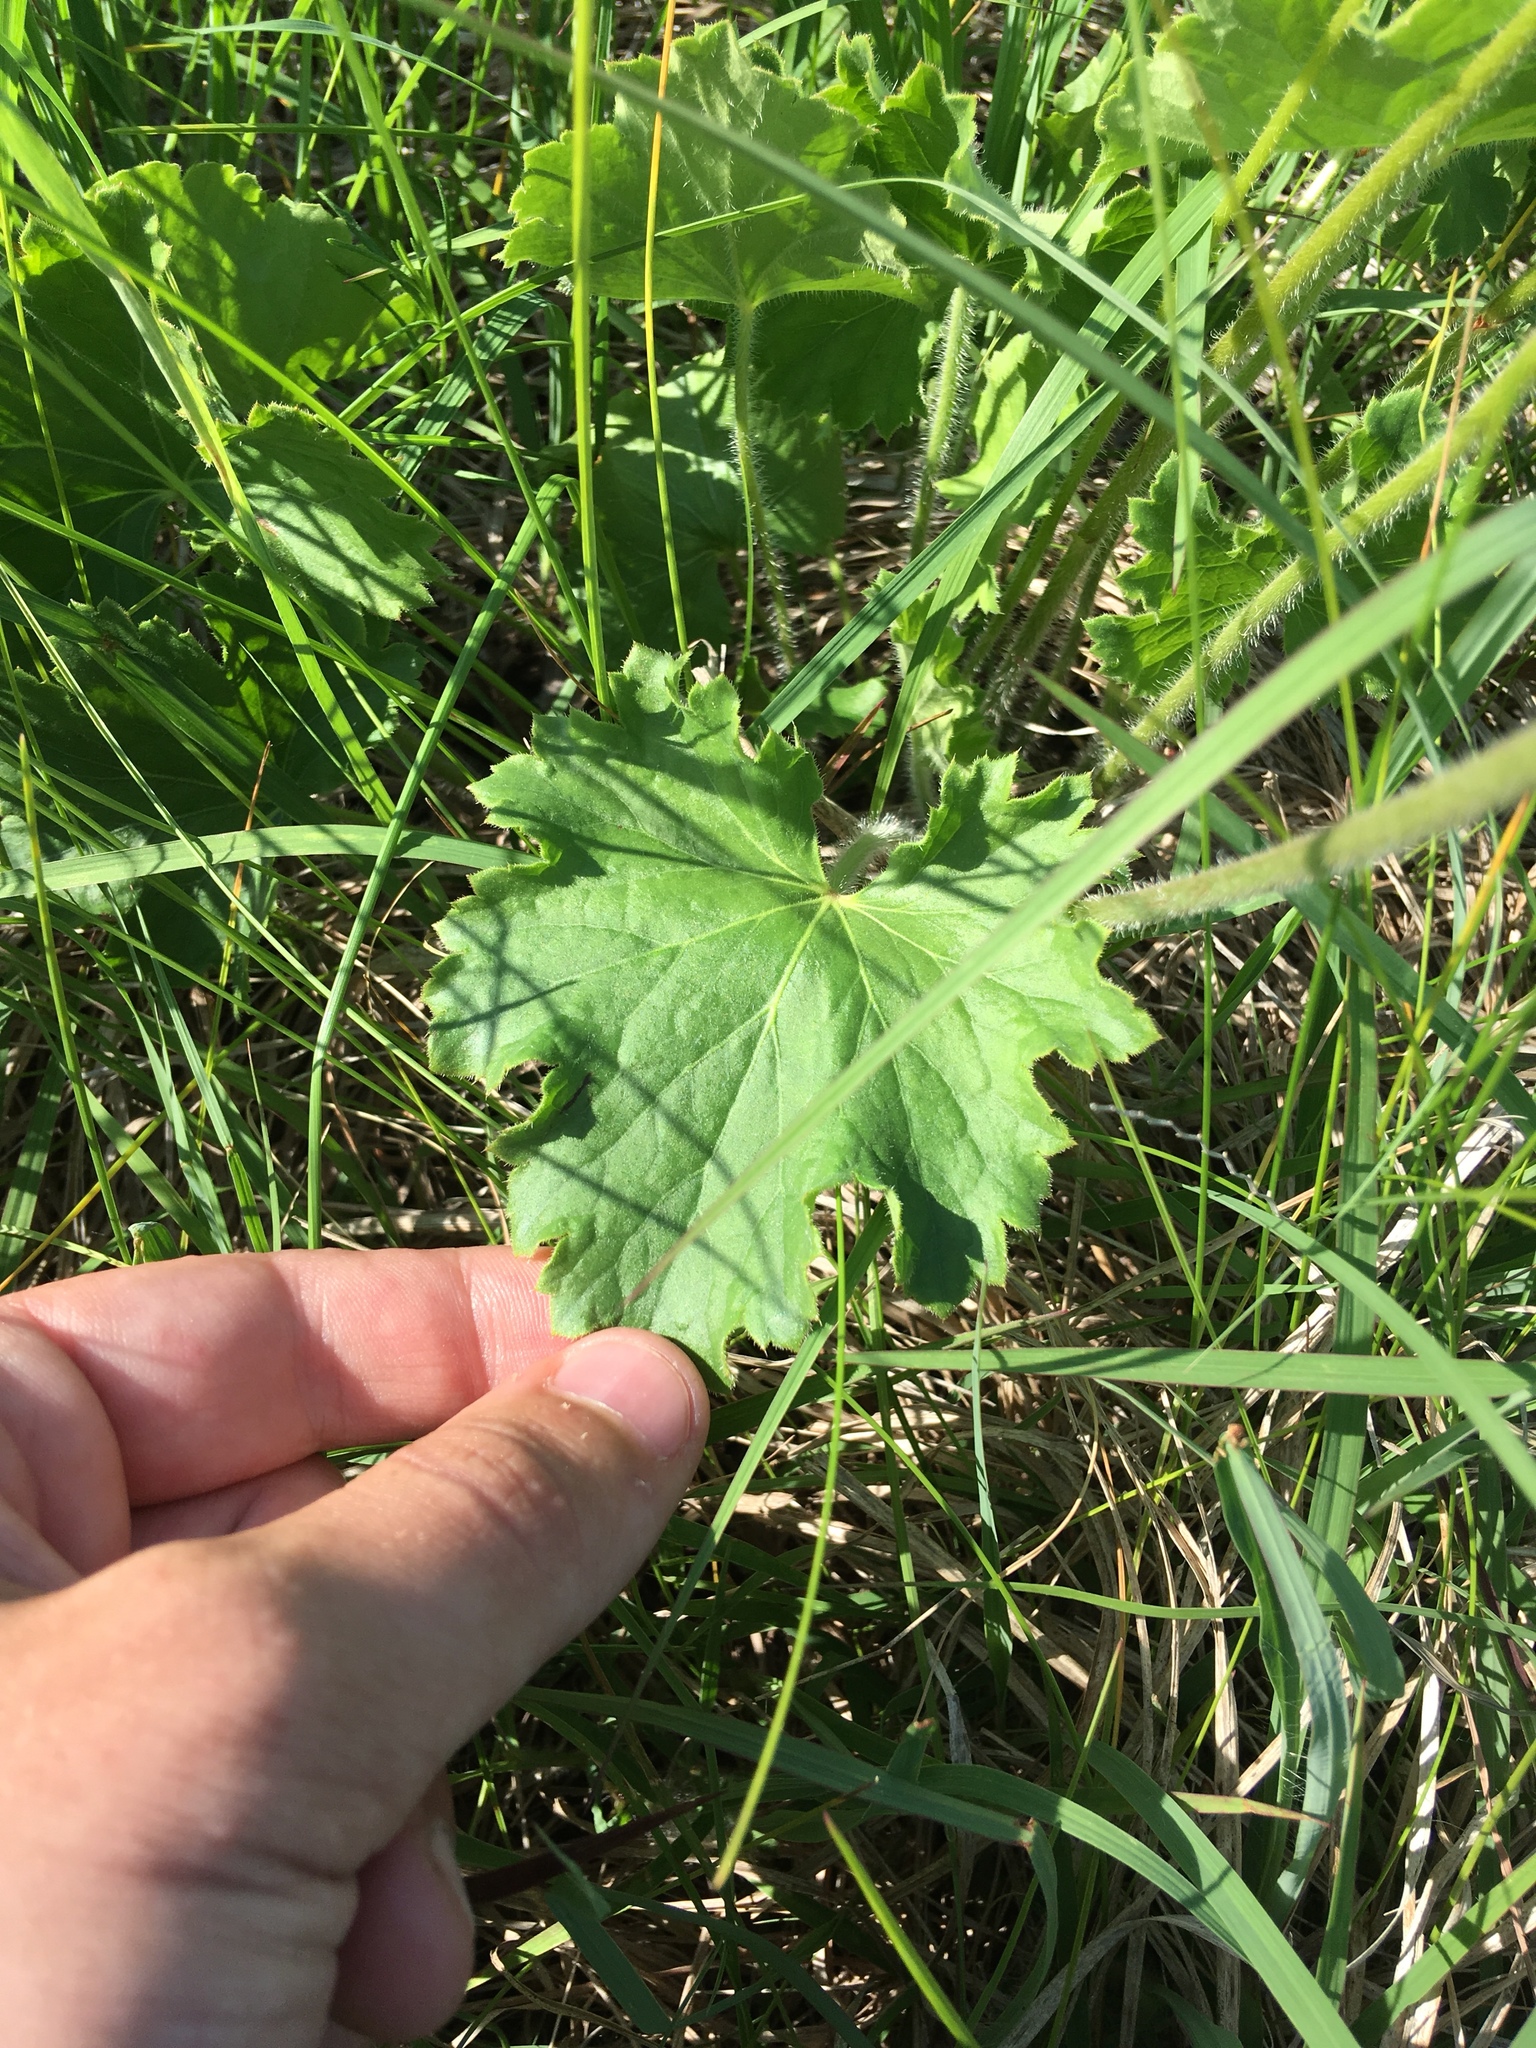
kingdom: Plantae
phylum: Tracheophyta
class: Magnoliopsida
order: Saxifragales
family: Saxifragaceae
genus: Heuchera
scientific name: Heuchera richardsonii
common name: Richardson's alumroot
